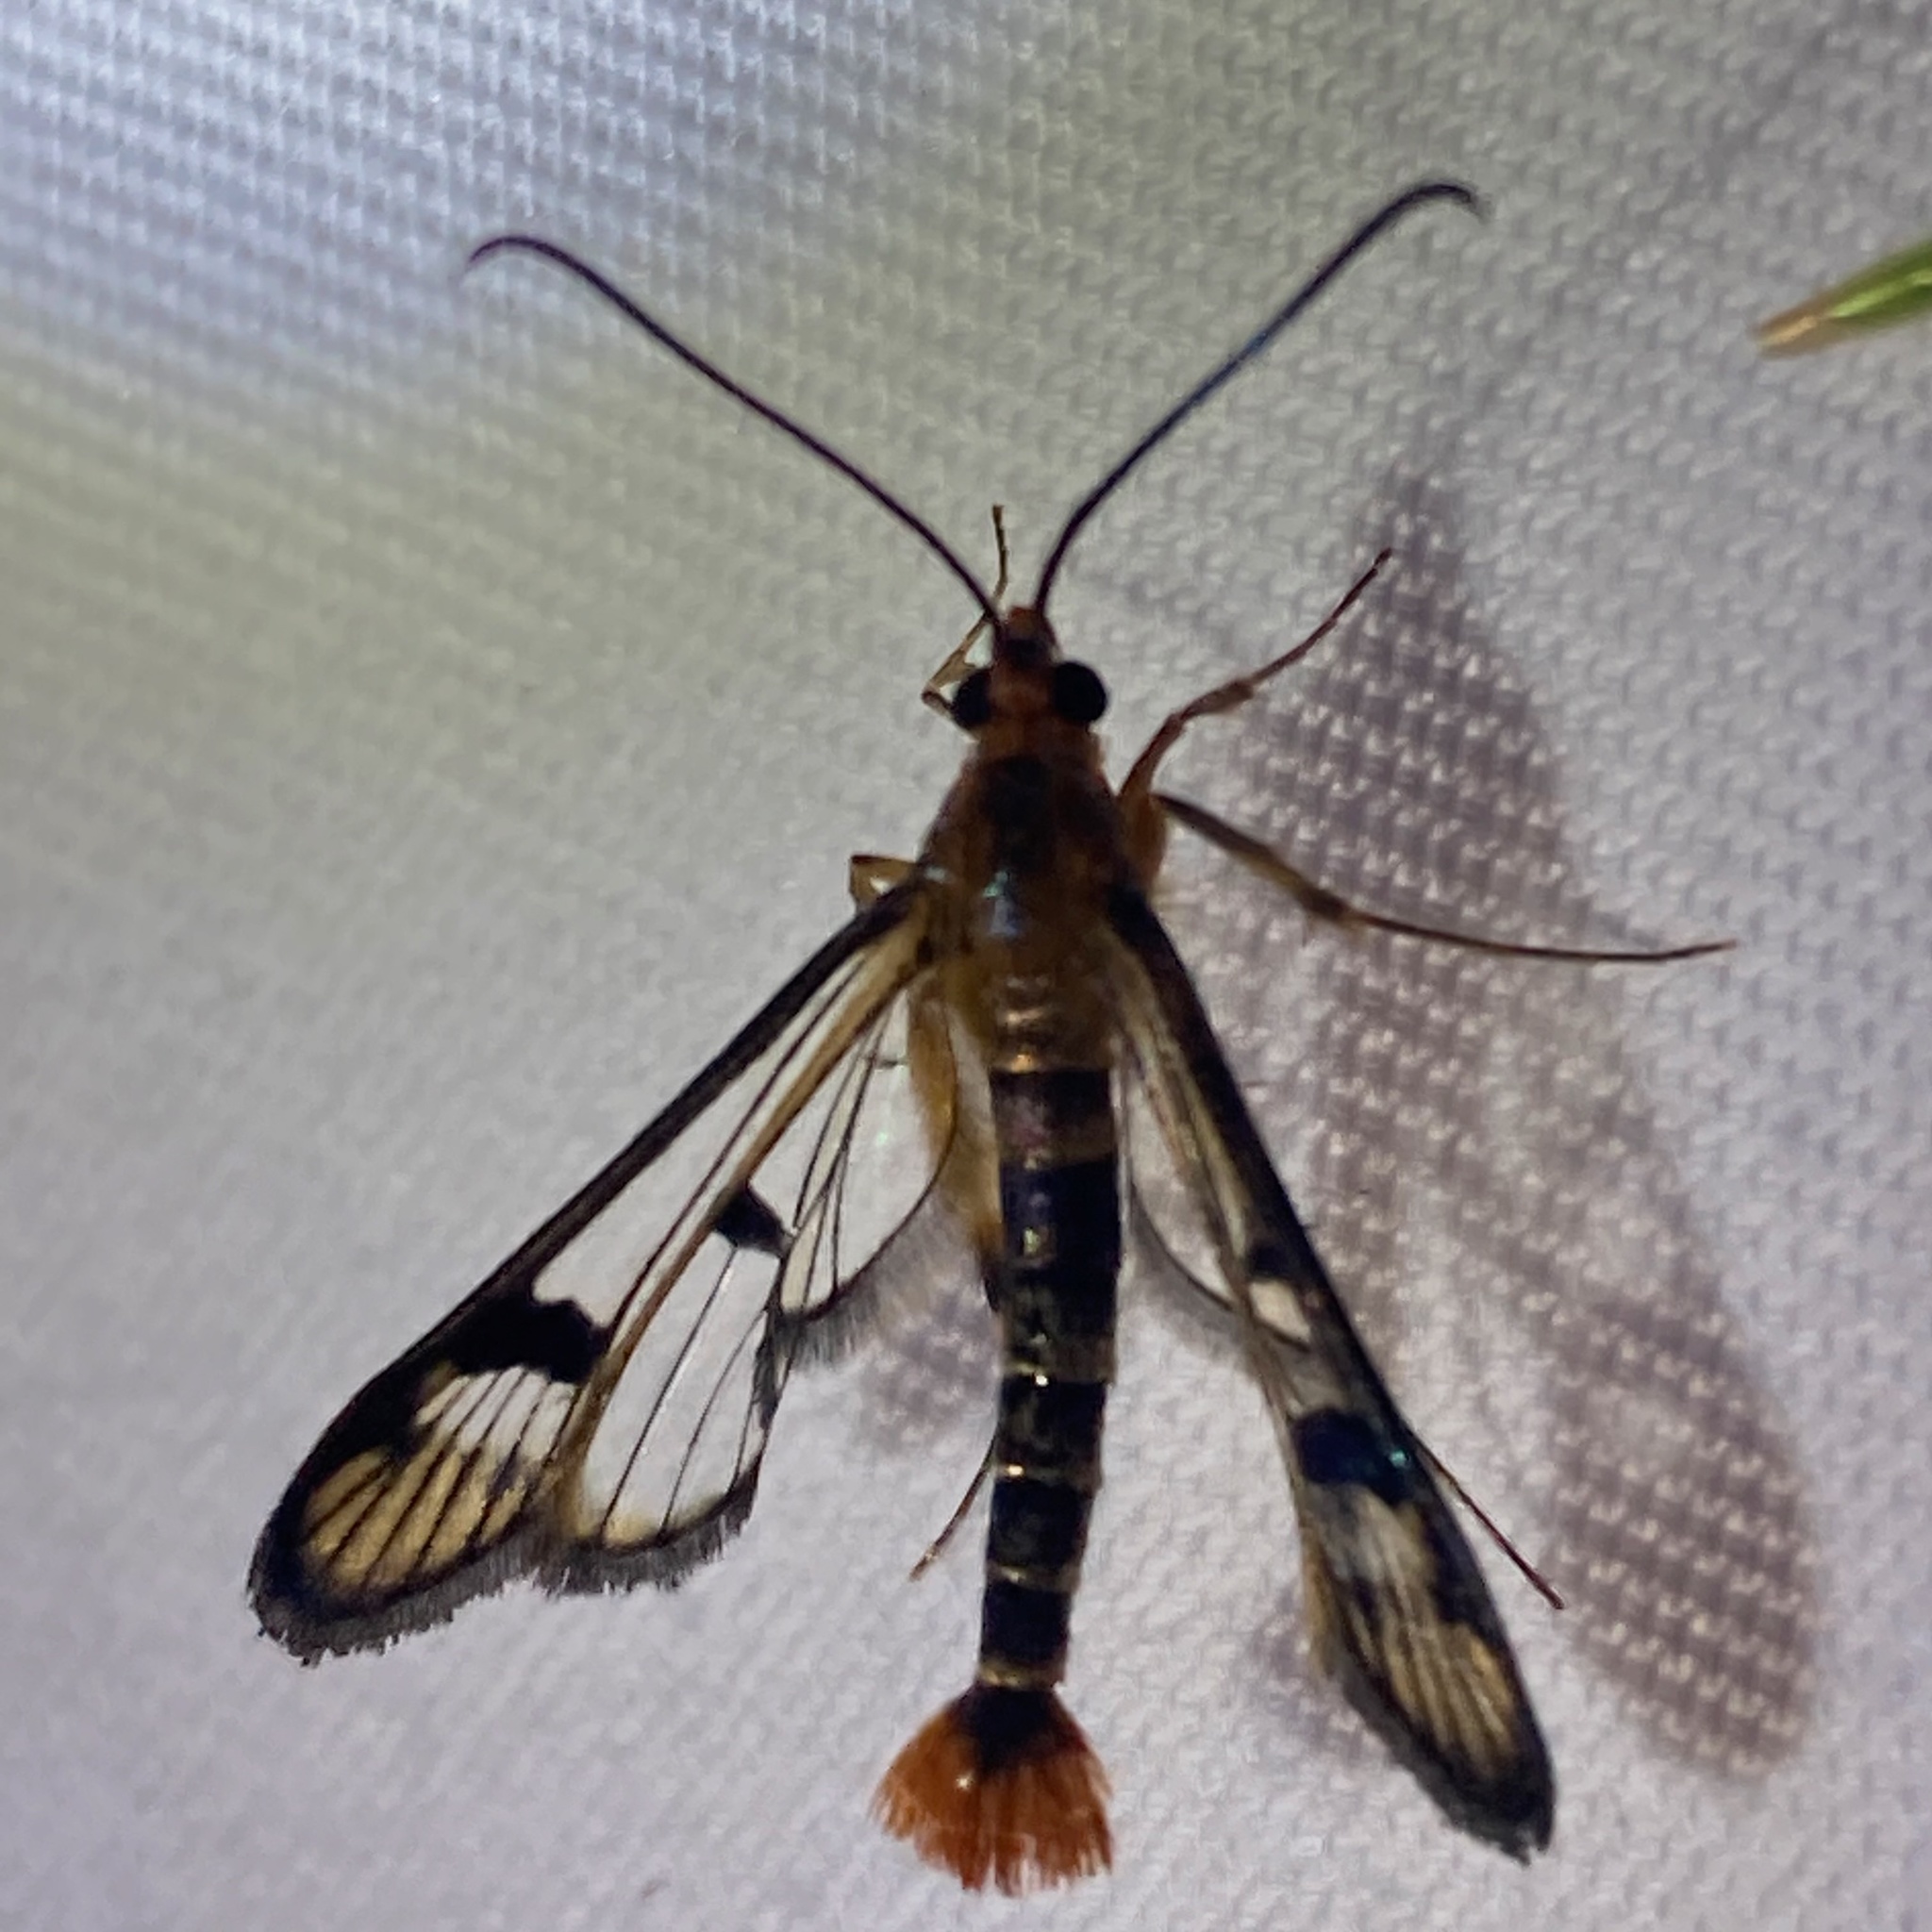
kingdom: Animalia
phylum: Arthropoda
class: Insecta
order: Lepidoptera
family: Sesiidae
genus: Synanthedon
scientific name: Synanthedon acerni
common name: Maple callus borer moth
